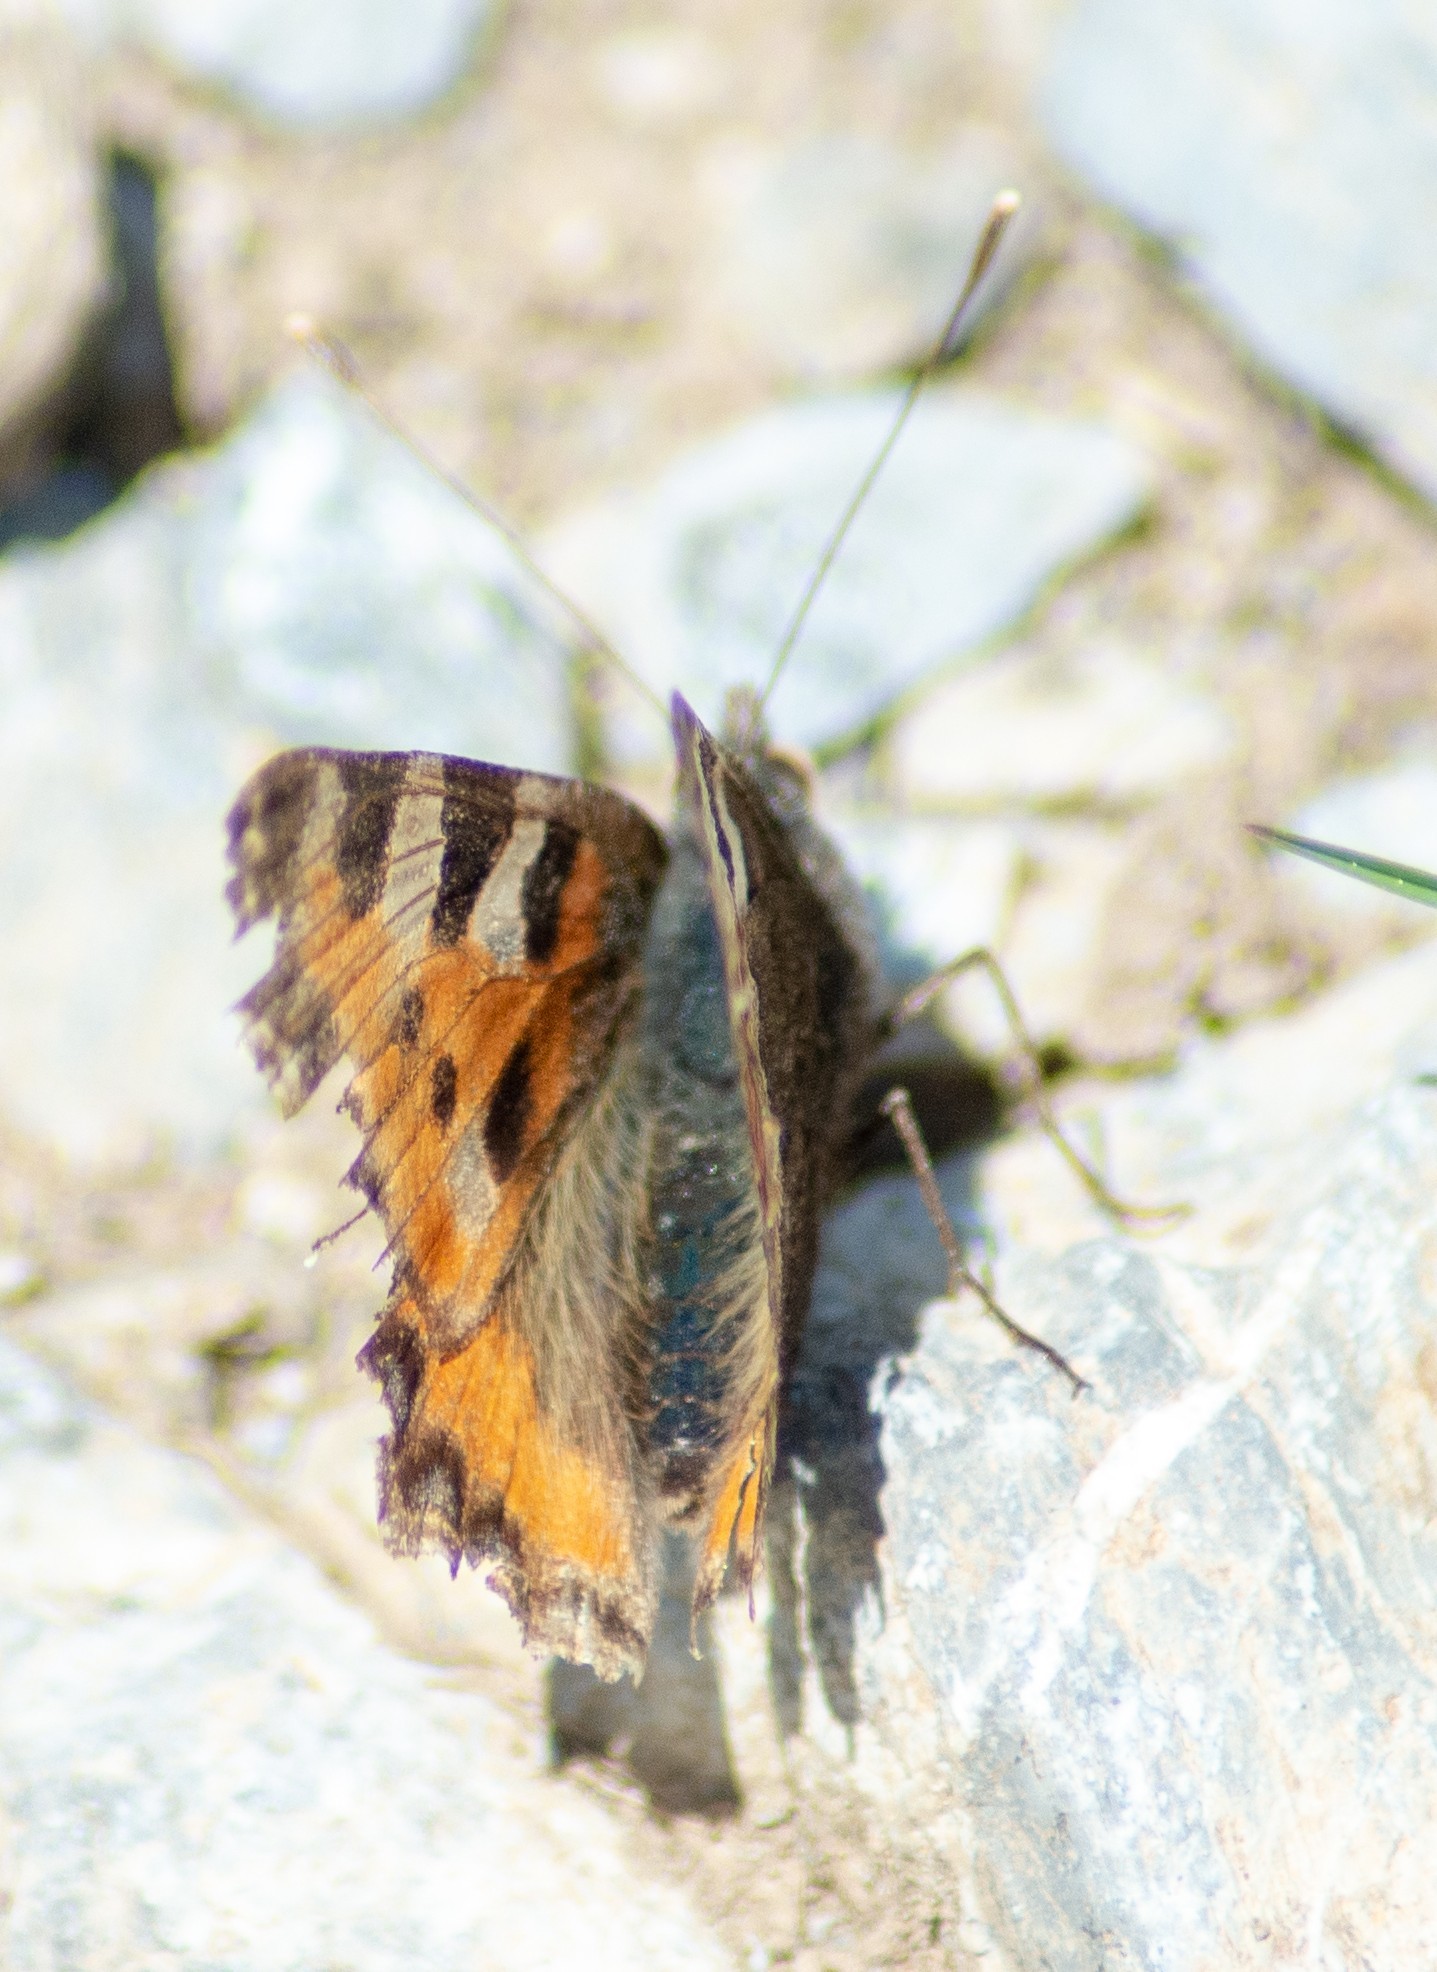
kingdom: Animalia
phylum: Arthropoda
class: Insecta
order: Lepidoptera
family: Nymphalidae
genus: Aglais
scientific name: Aglais urticae
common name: Small tortoiseshell
